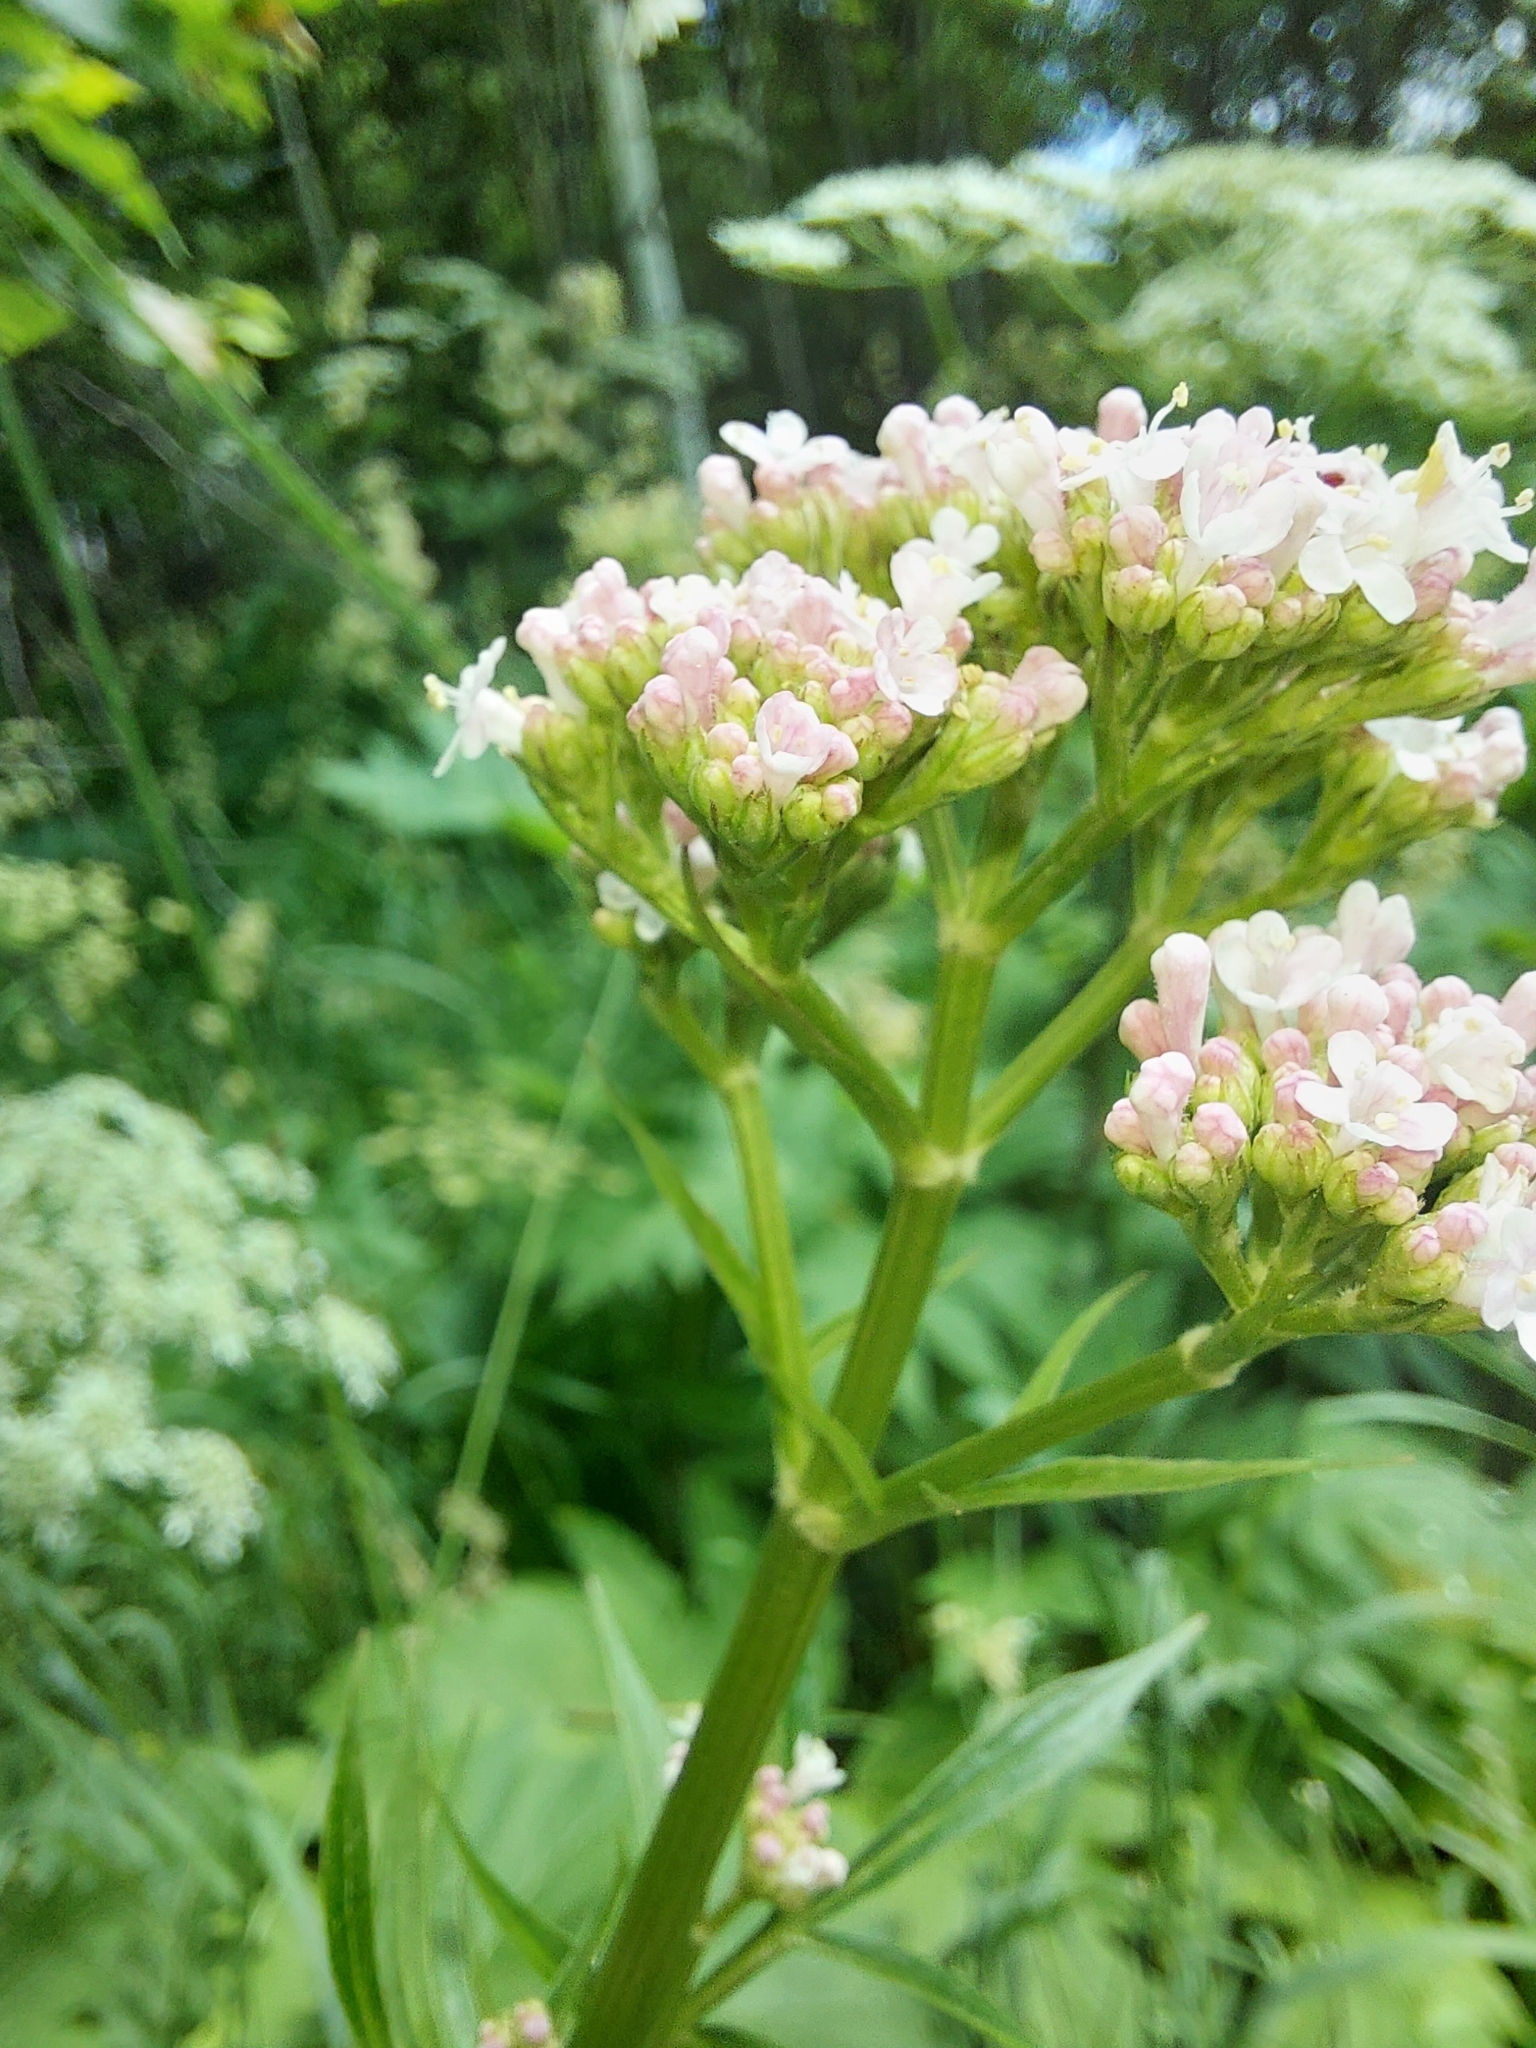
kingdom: Plantae
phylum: Tracheophyta
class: Magnoliopsida
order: Dipsacales
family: Caprifoliaceae
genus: Valeriana
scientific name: Valeriana officinalis
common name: Common valerian
